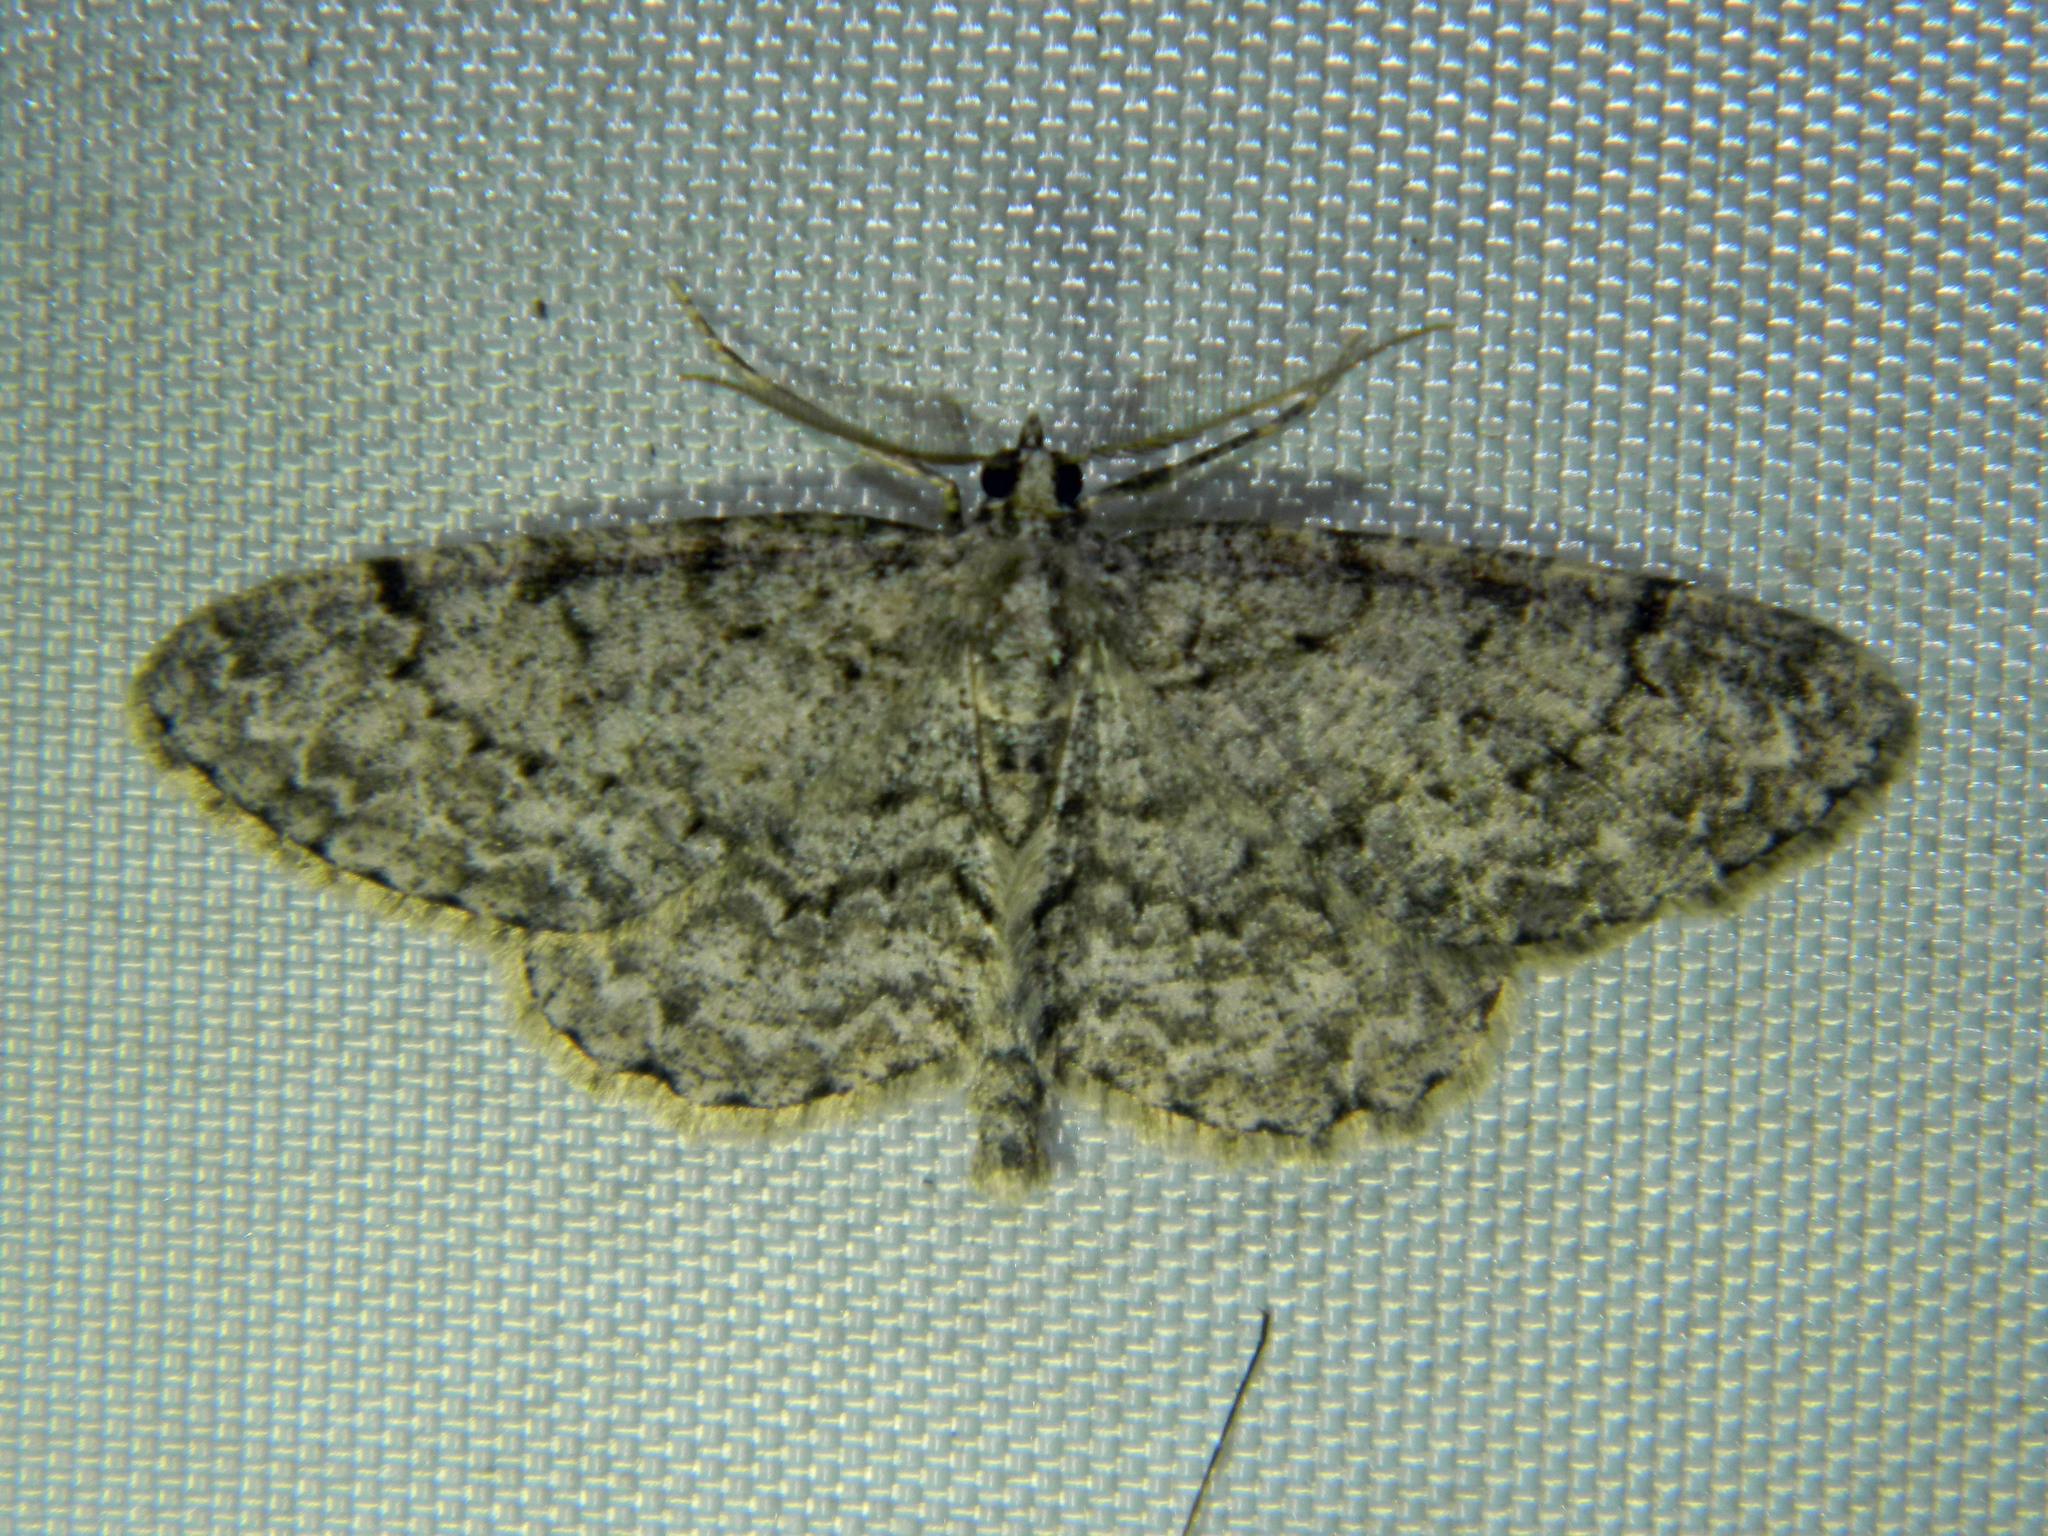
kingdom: Animalia
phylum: Arthropoda
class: Insecta
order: Lepidoptera
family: Geometridae
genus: Protoboarmia
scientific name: Protoboarmia porcelaria
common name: Porcelain gray
